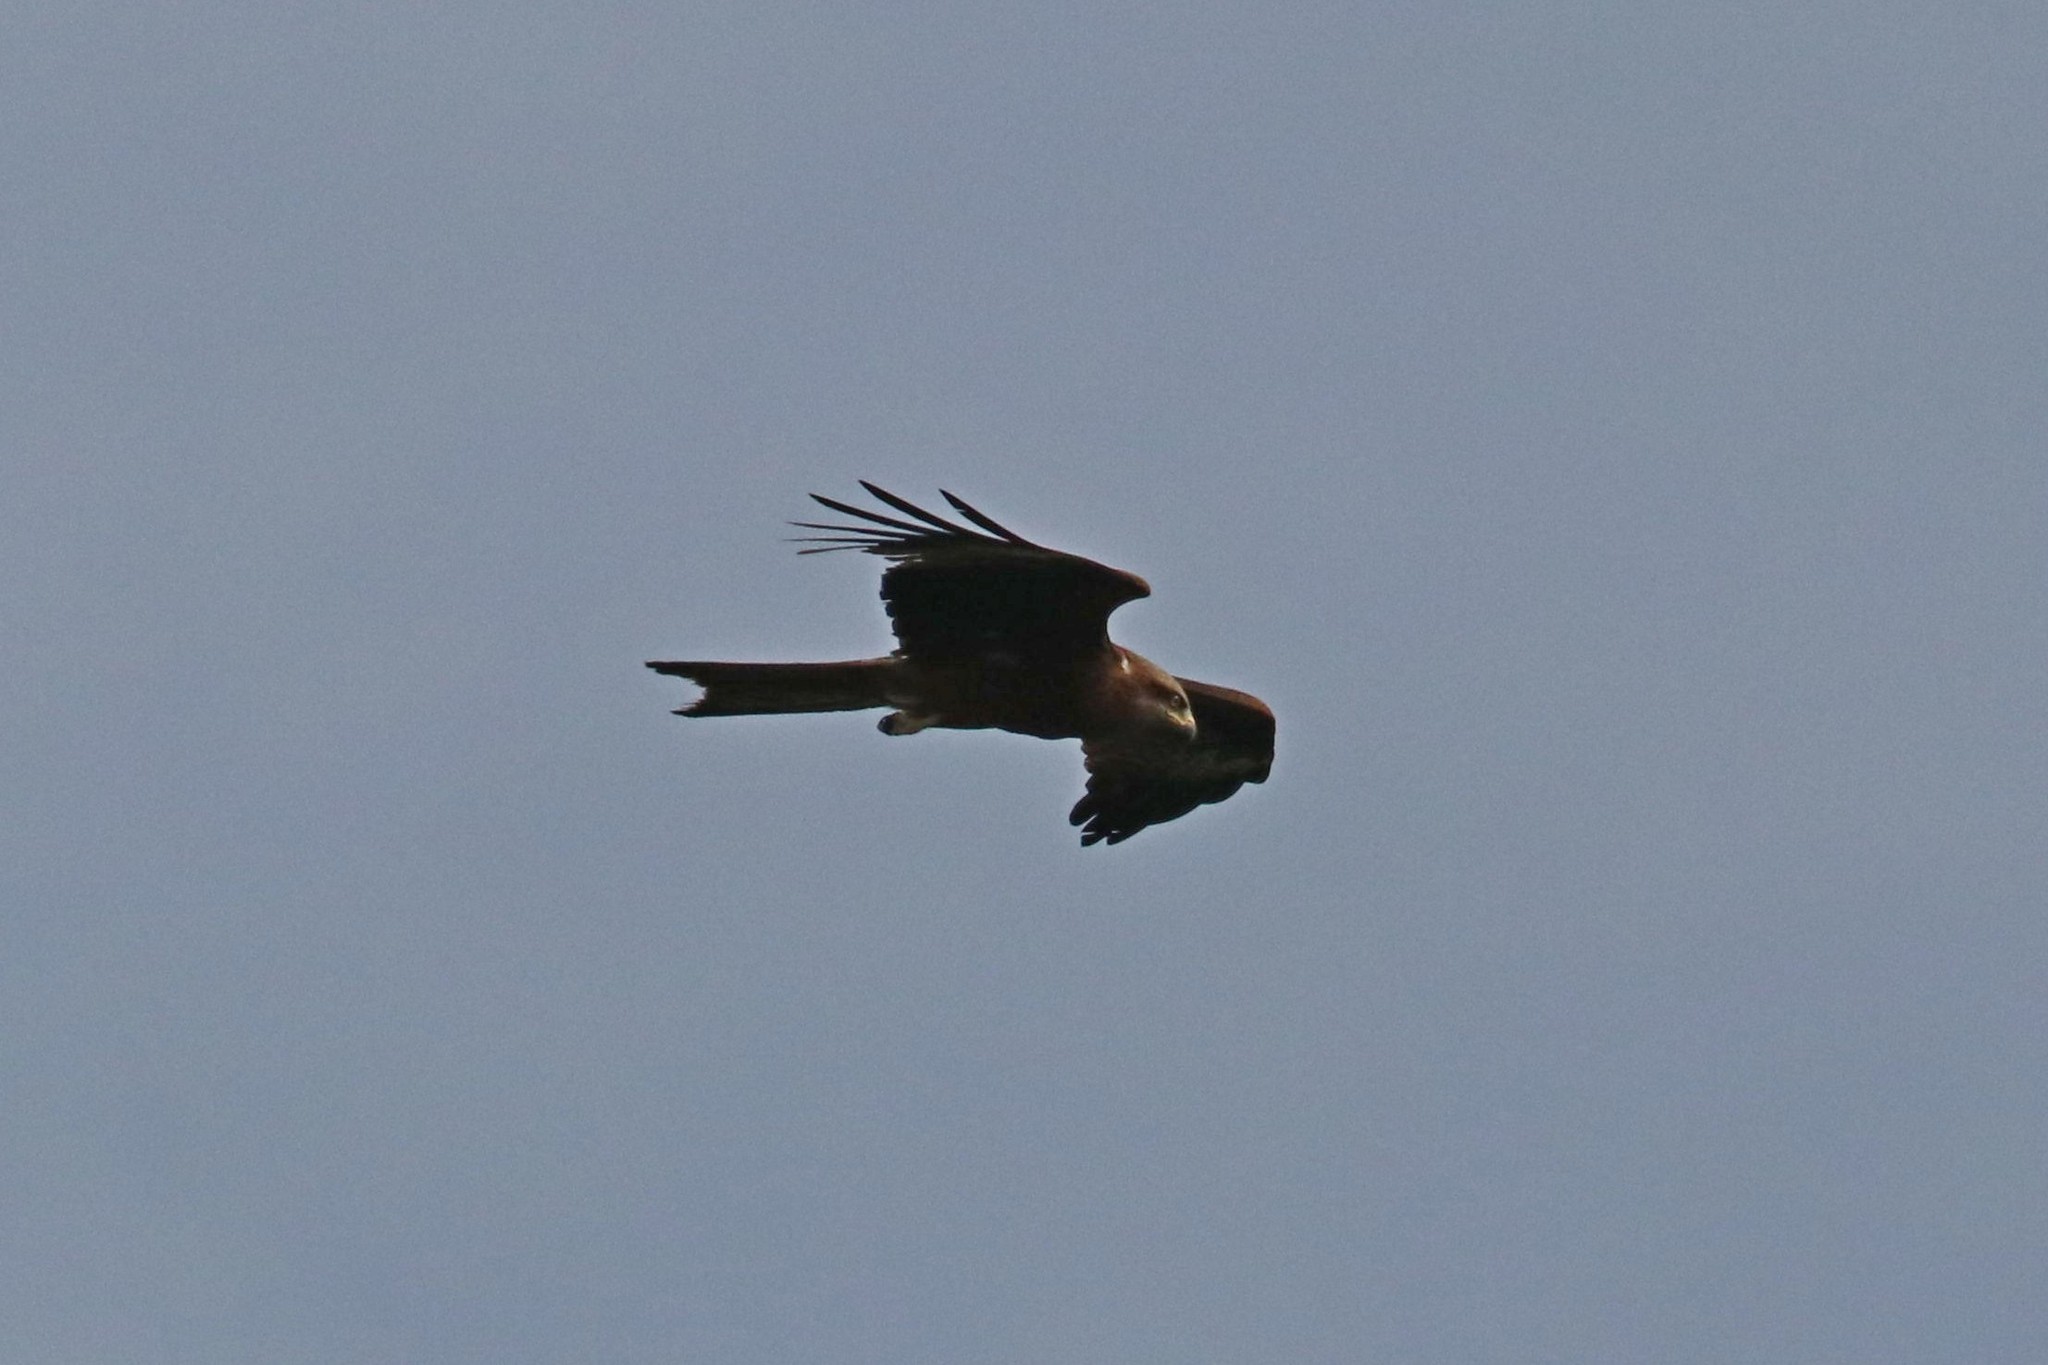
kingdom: Animalia
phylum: Chordata
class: Aves
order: Accipitriformes
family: Accipitridae
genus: Milvus
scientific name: Milvus migrans
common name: Black kite
